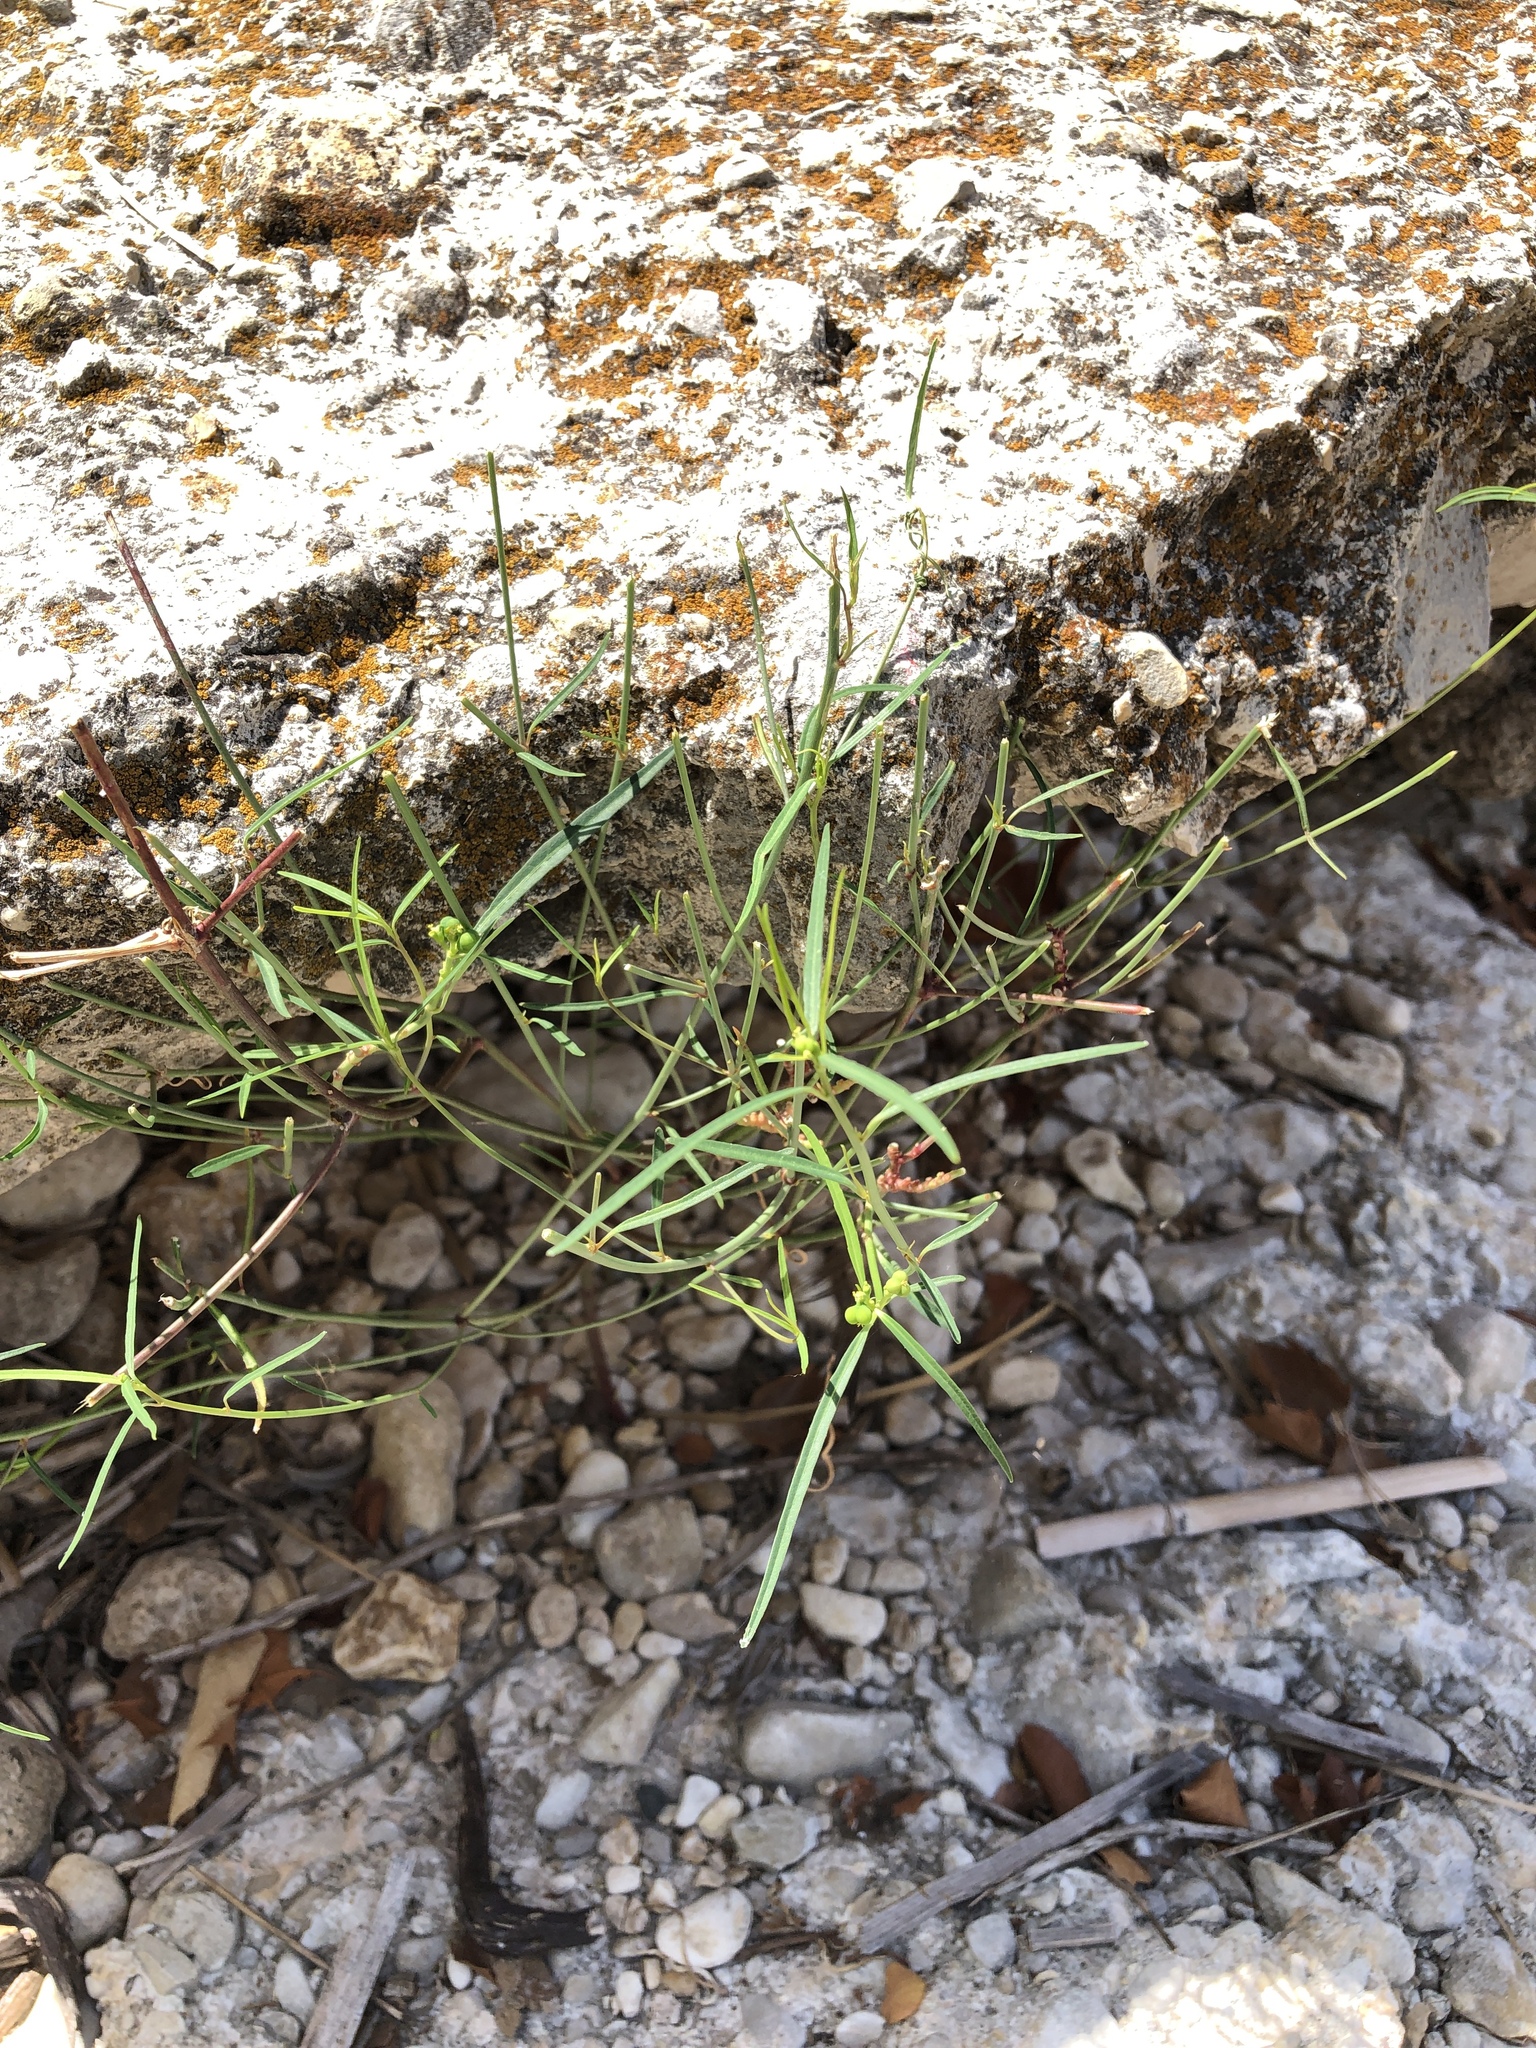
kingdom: Plantae
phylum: Tracheophyta
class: Magnoliopsida
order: Malpighiales
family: Euphorbiaceae
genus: Euphorbia
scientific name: Euphorbia heterophylla
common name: Mexican fireplant
